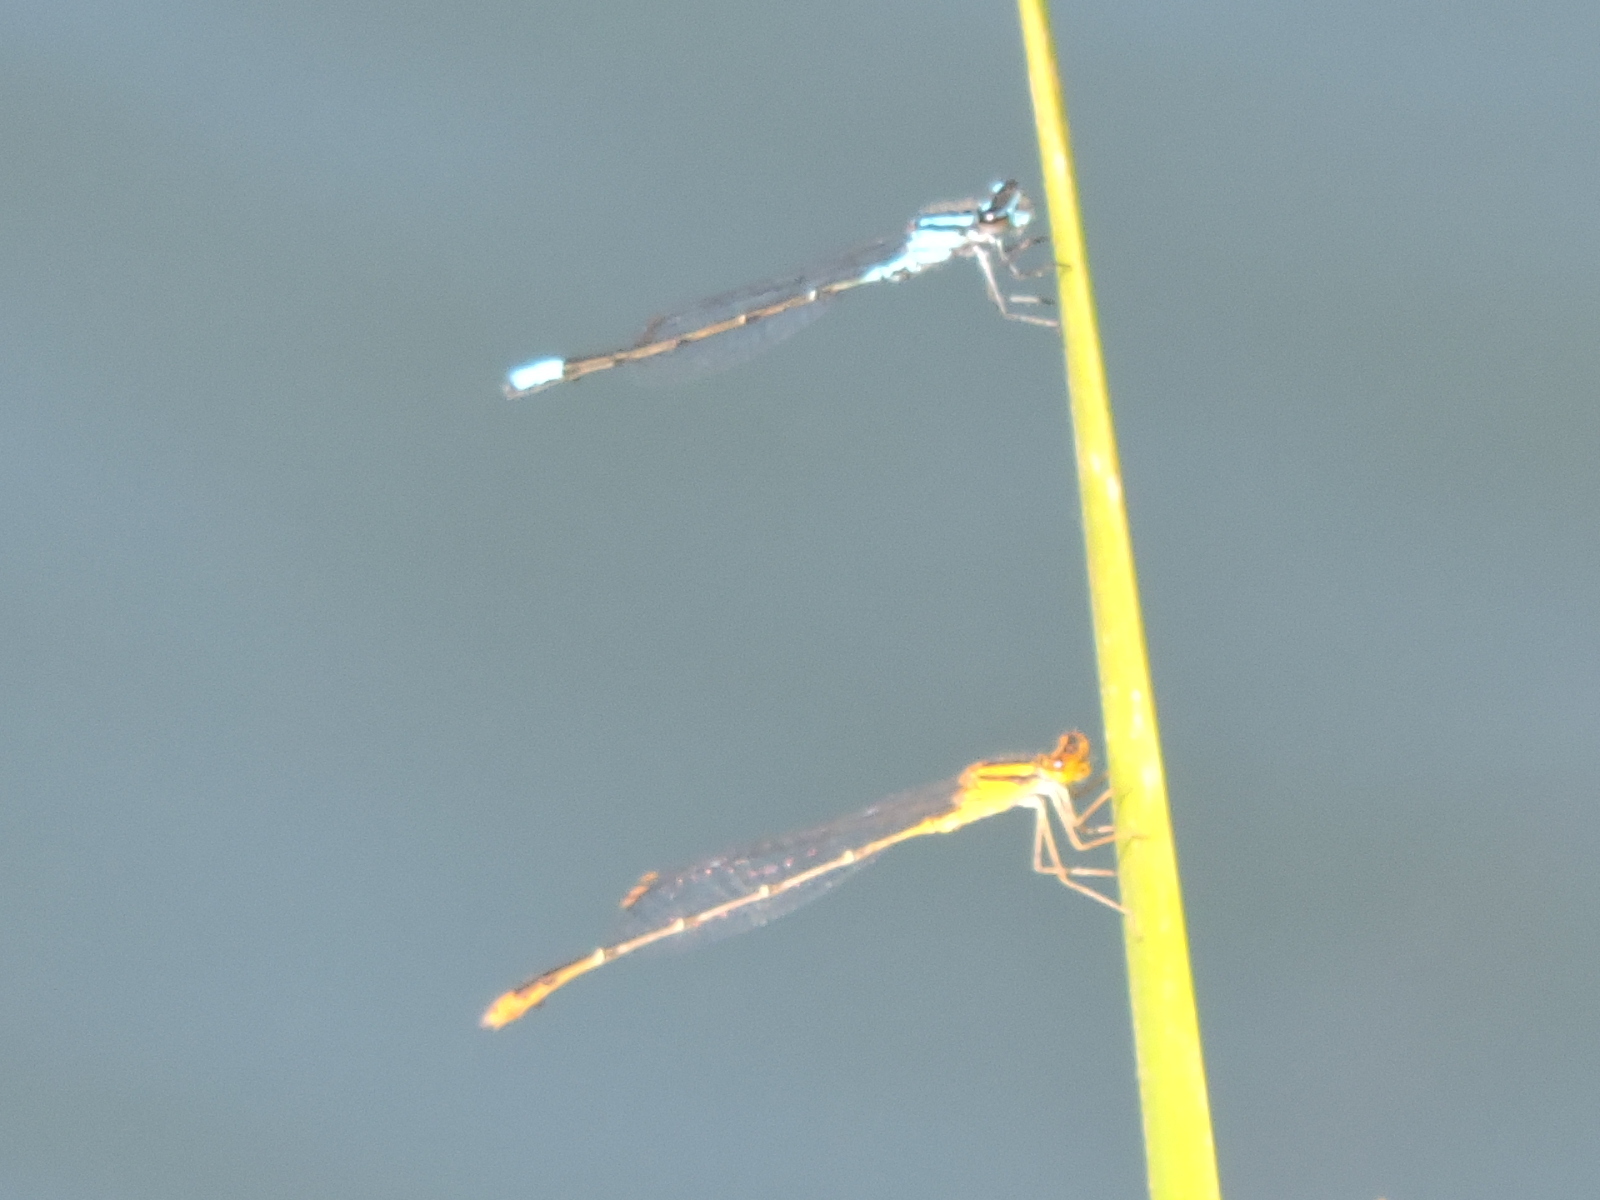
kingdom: Animalia
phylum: Arthropoda
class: Insecta
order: Odonata
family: Coenagrionidae
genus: Enallagma
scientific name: Enallagma signatum
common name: Orange bluet
